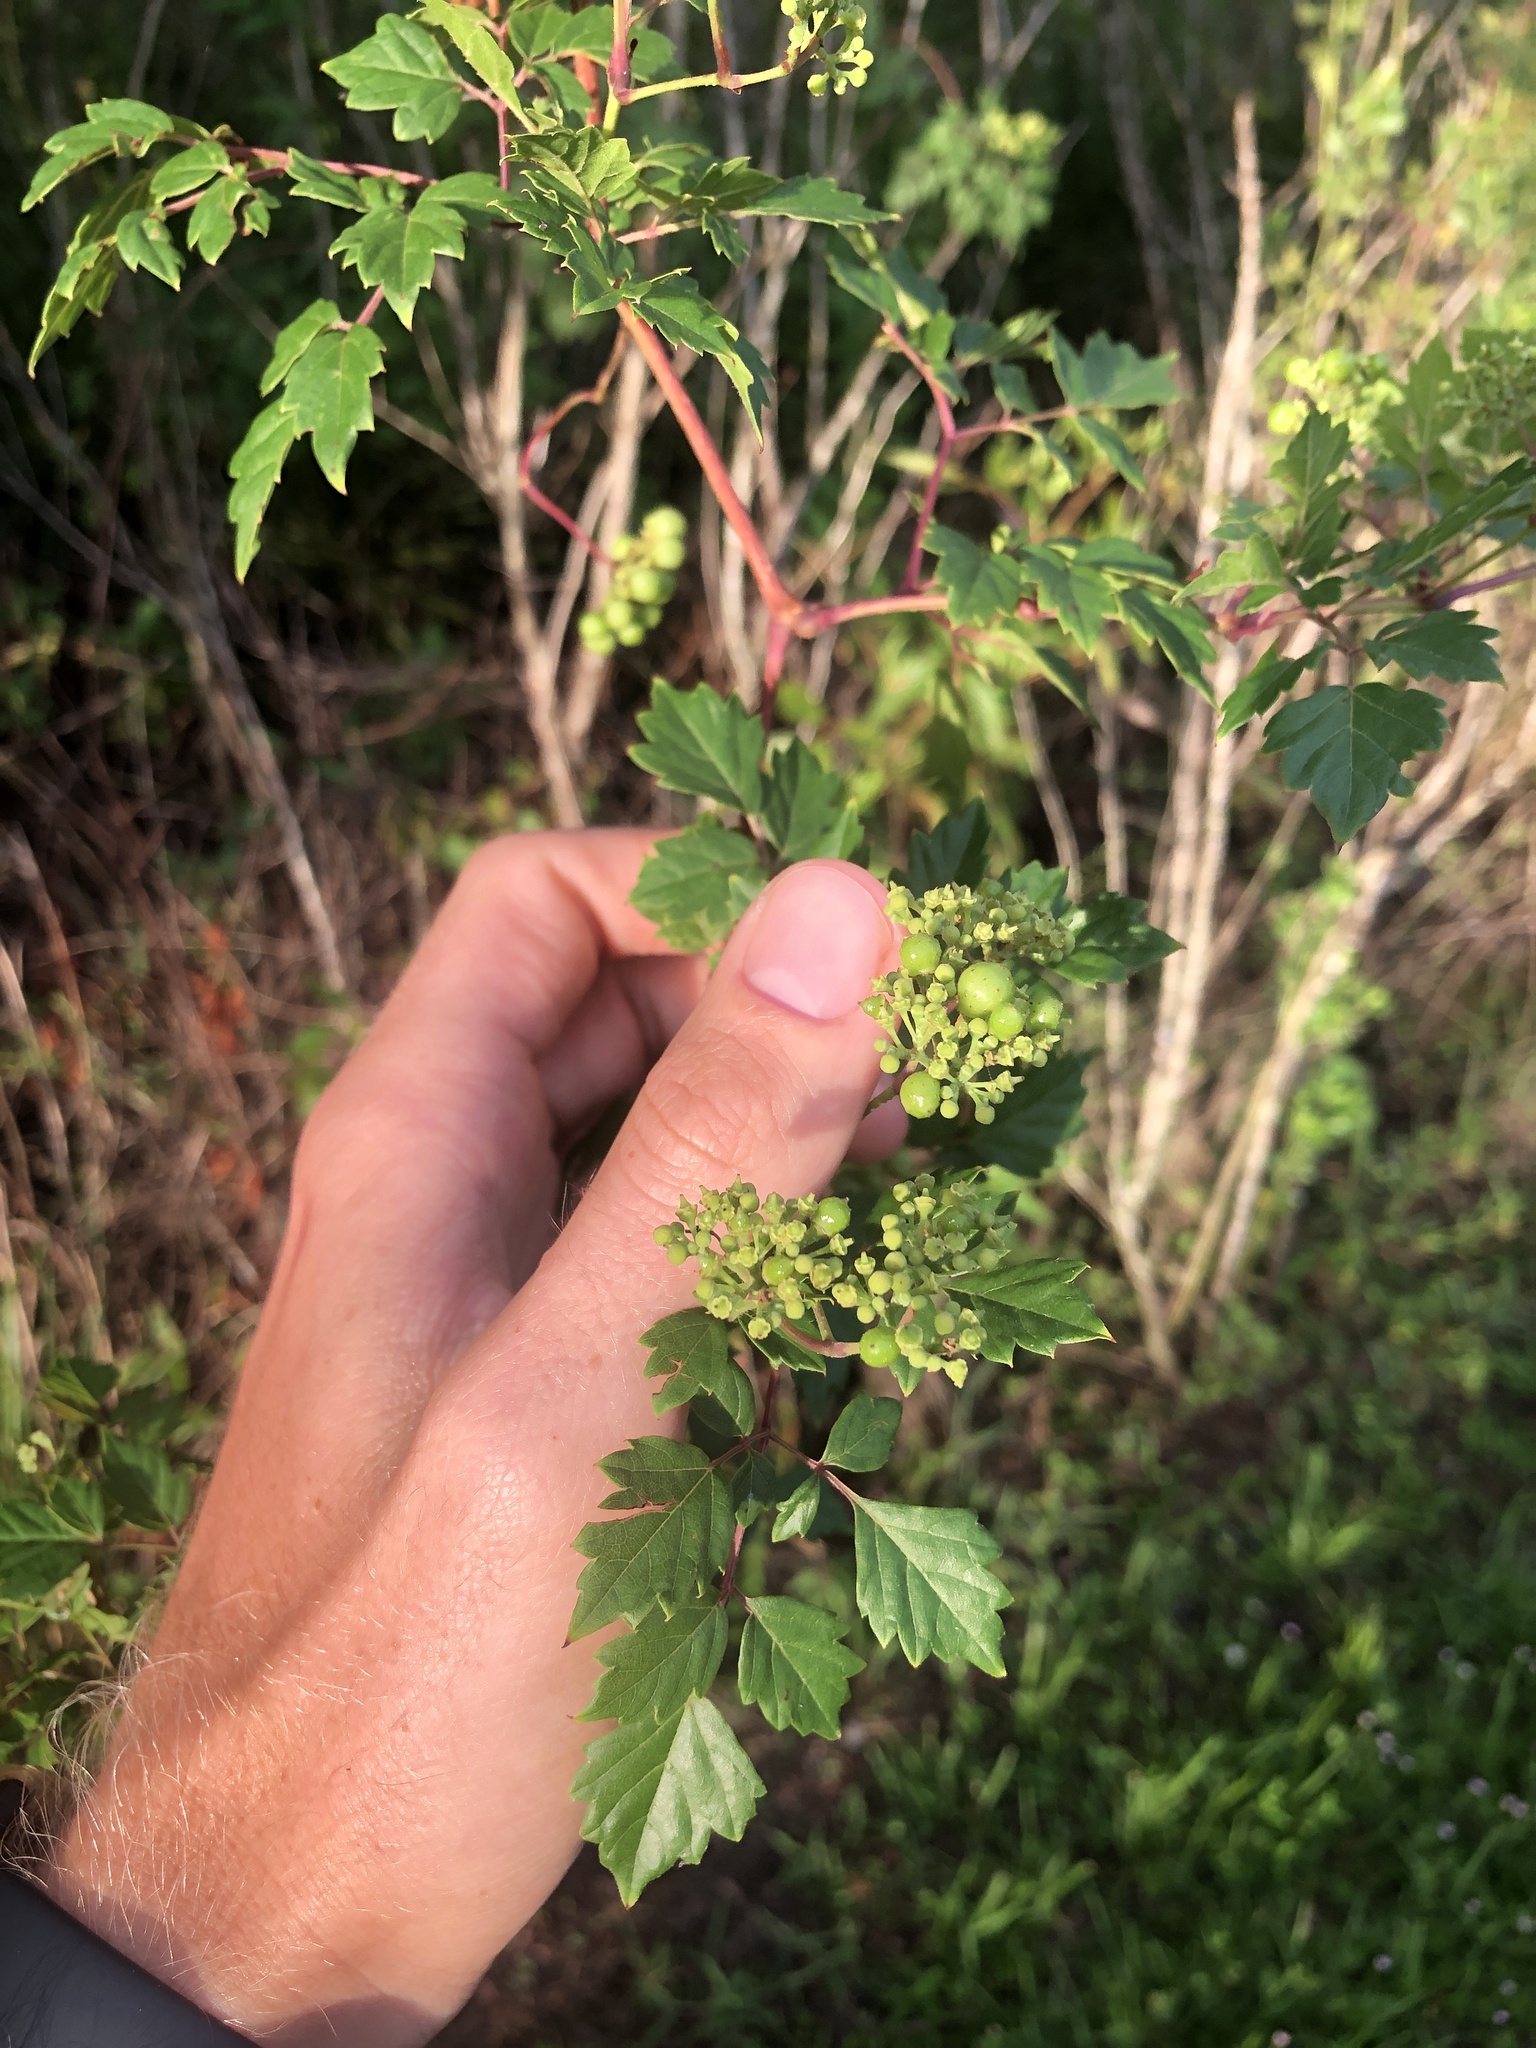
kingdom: Plantae
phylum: Tracheophyta
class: Magnoliopsida
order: Vitales
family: Vitaceae
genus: Nekemias
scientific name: Nekemias arborea
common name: Peppervine
